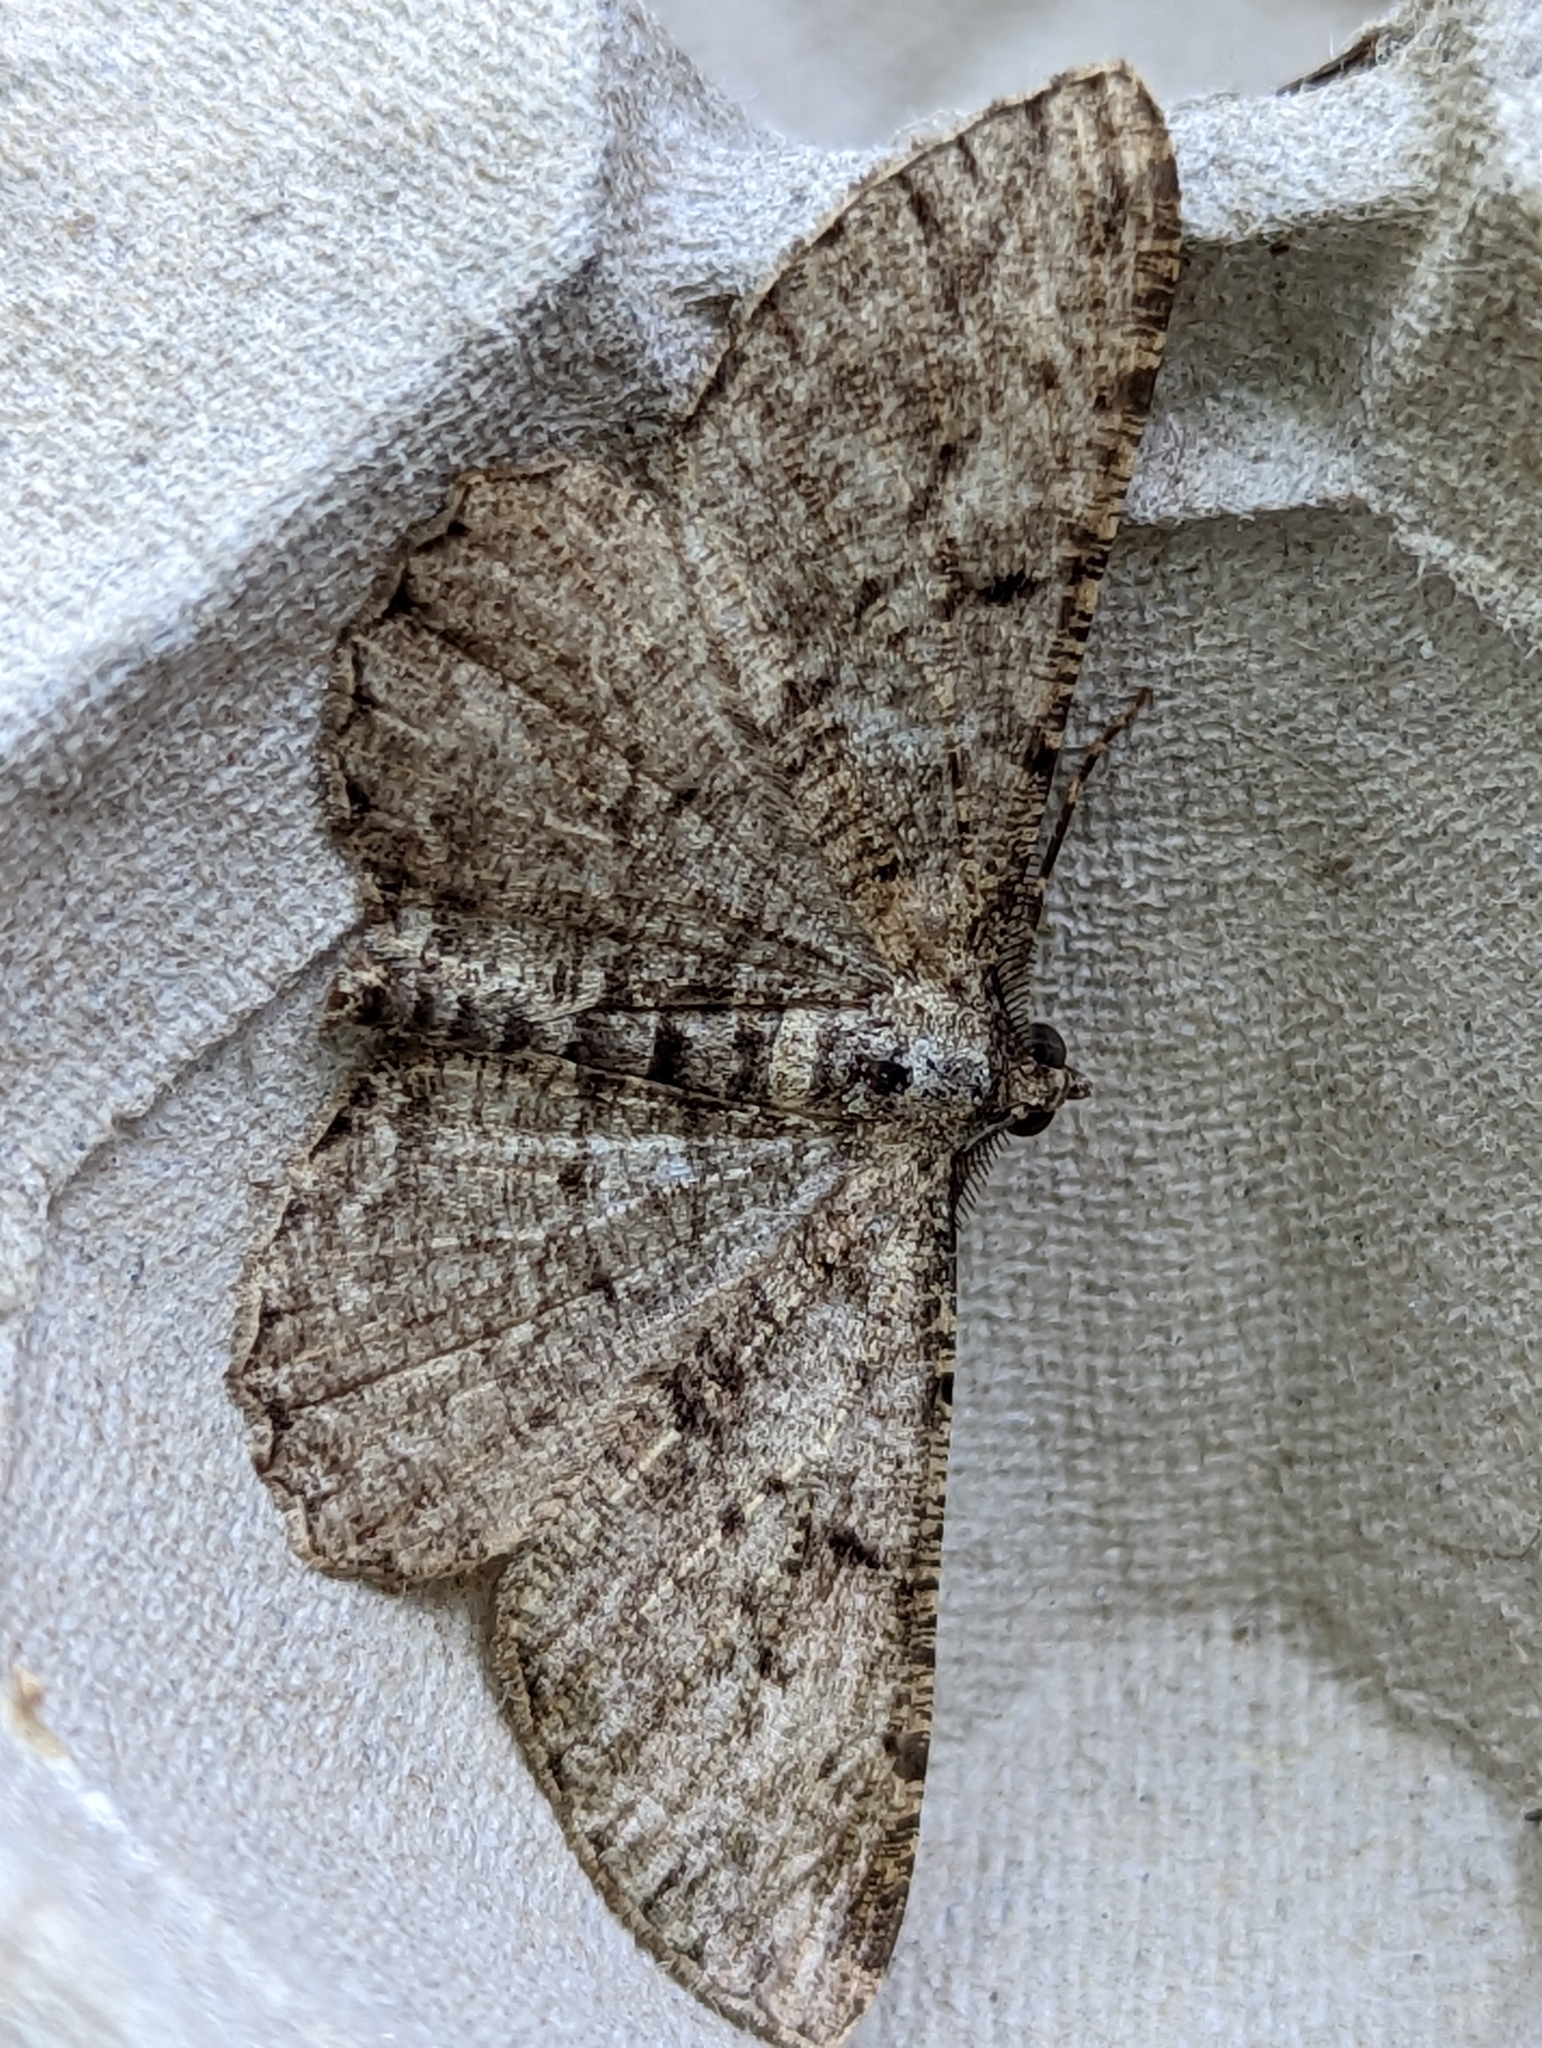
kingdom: Animalia
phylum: Arthropoda
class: Insecta
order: Lepidoptera
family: Geometridae
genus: Peribatodes
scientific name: Peribatodes rhomboidaria
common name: Willow beauty
